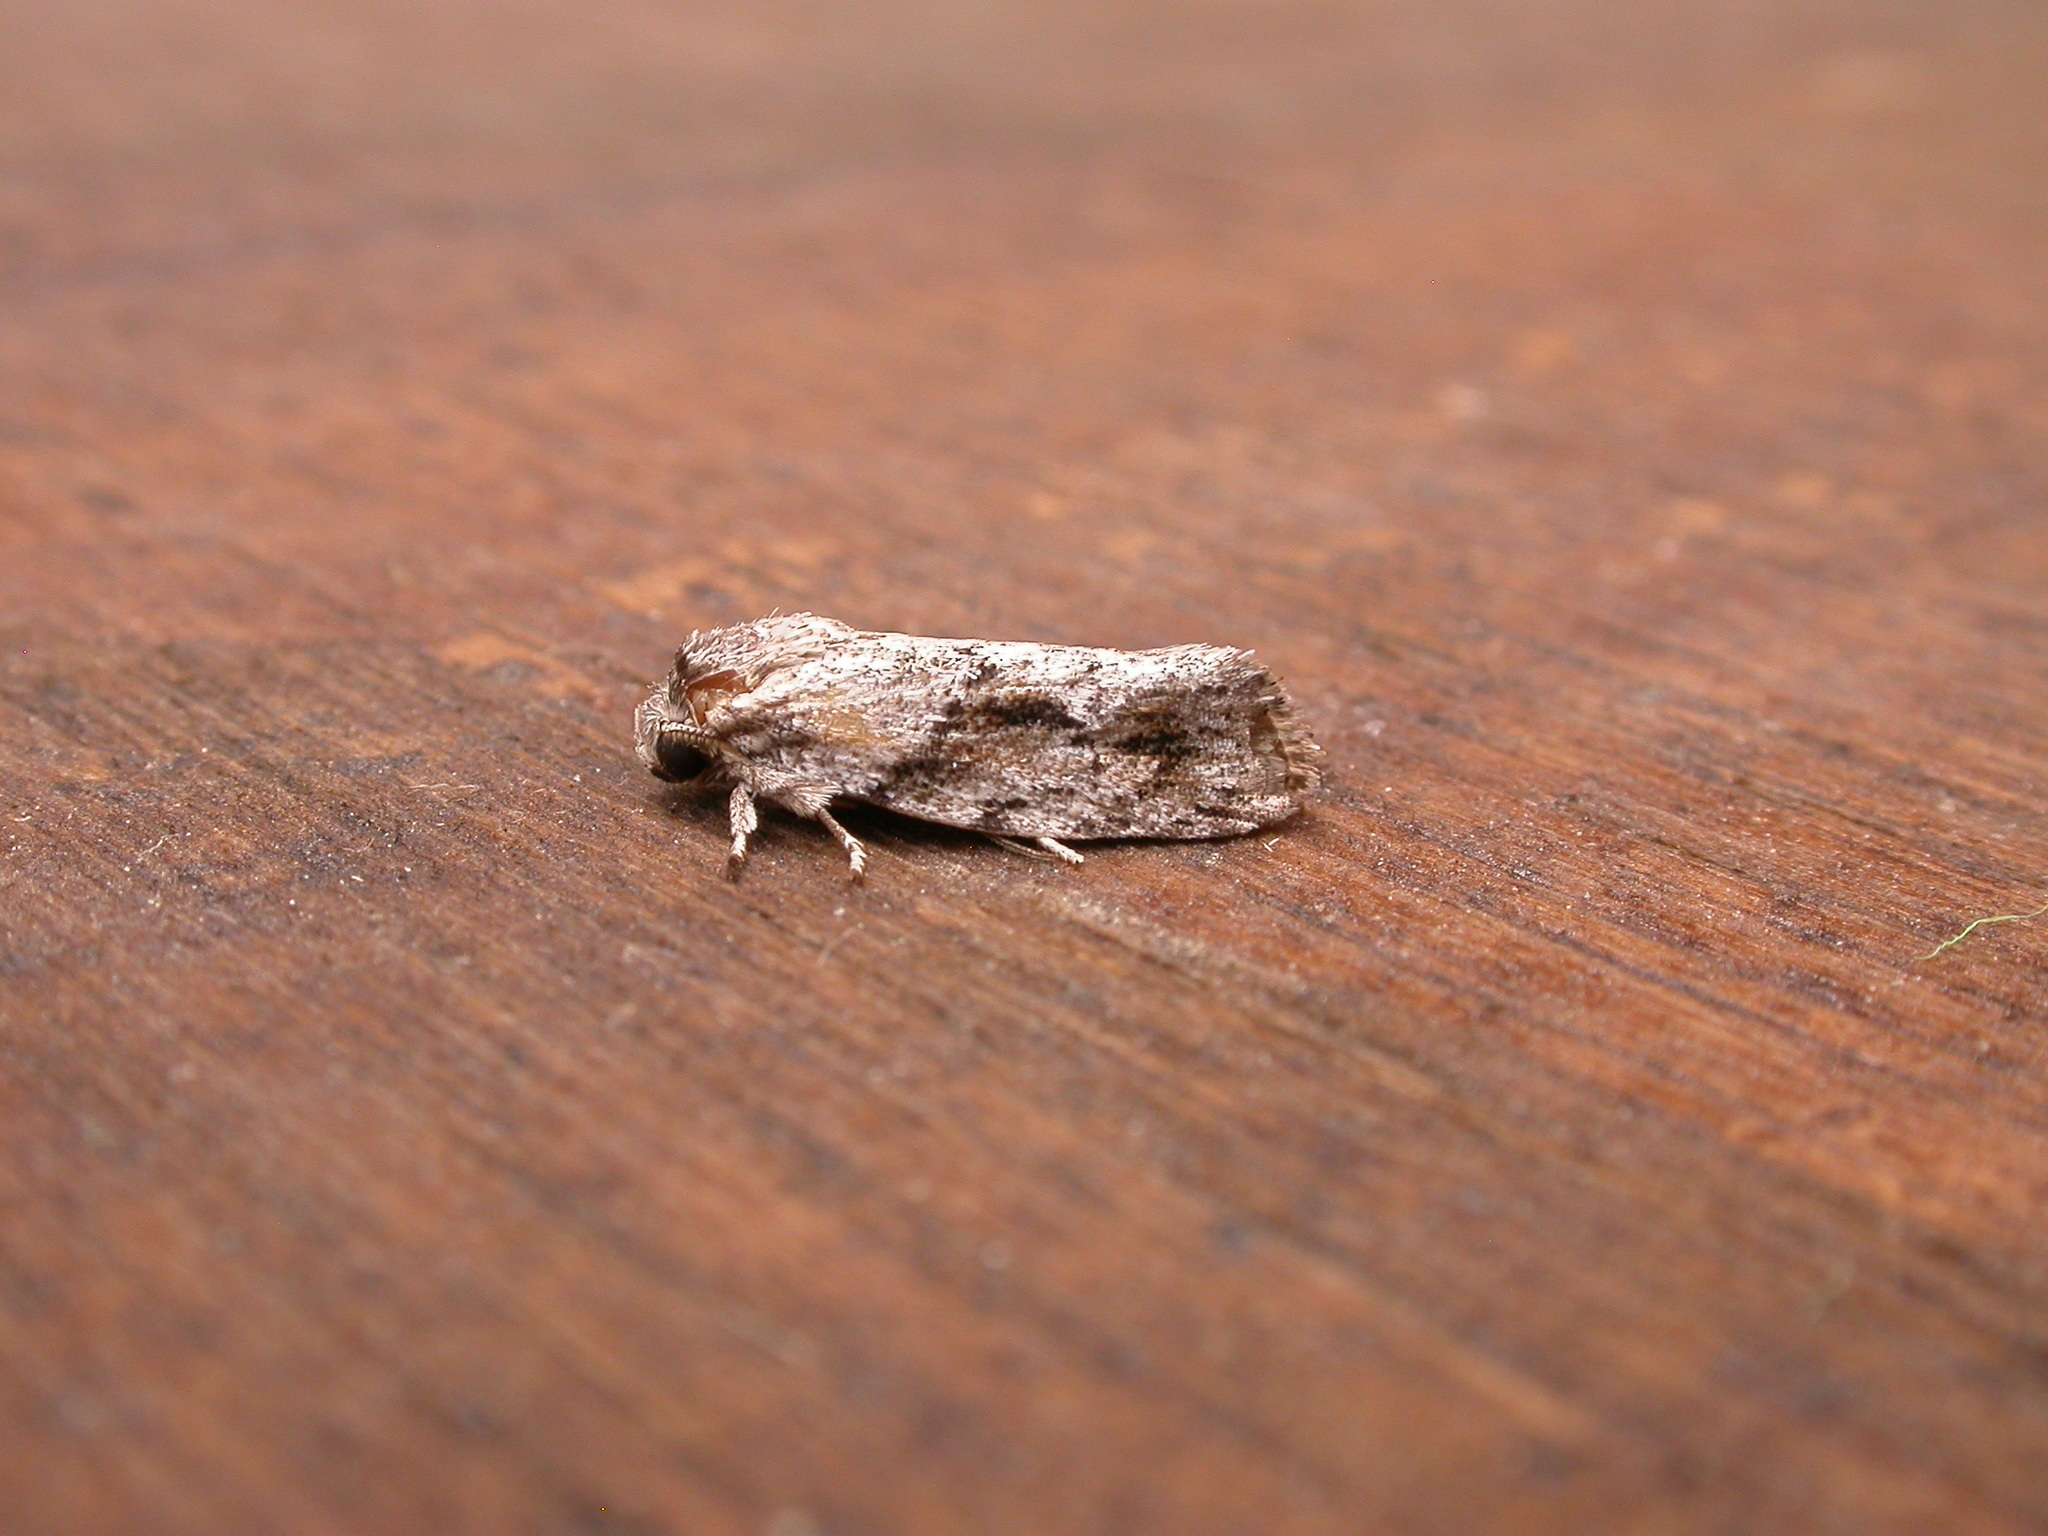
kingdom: Animalia
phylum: Arthropoda
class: Insecta
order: Lepidoptera
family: Depressariidae
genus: Agriophara
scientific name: Agriophara confertella
